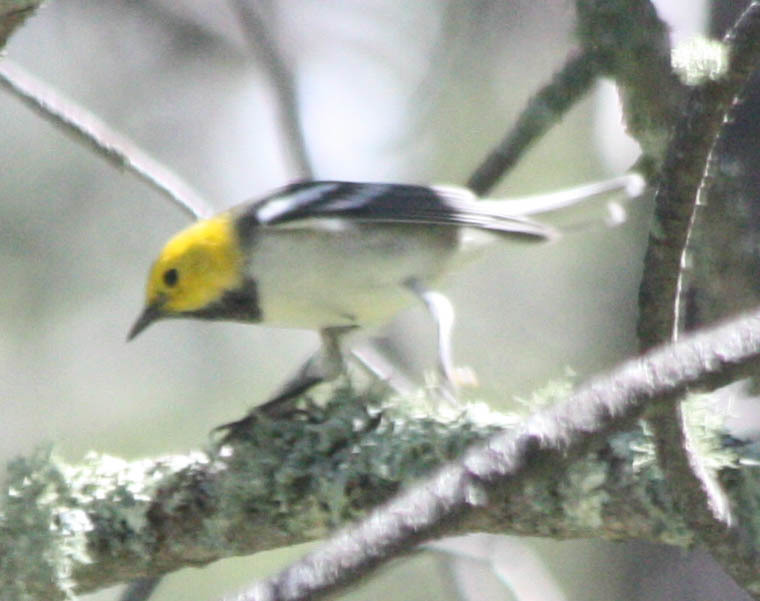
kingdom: Animalia
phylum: Chordata
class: Aves
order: Passeriformes
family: Parulidae
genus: Setophaga
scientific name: Setophaga occidentalis
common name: Hermit warbler
